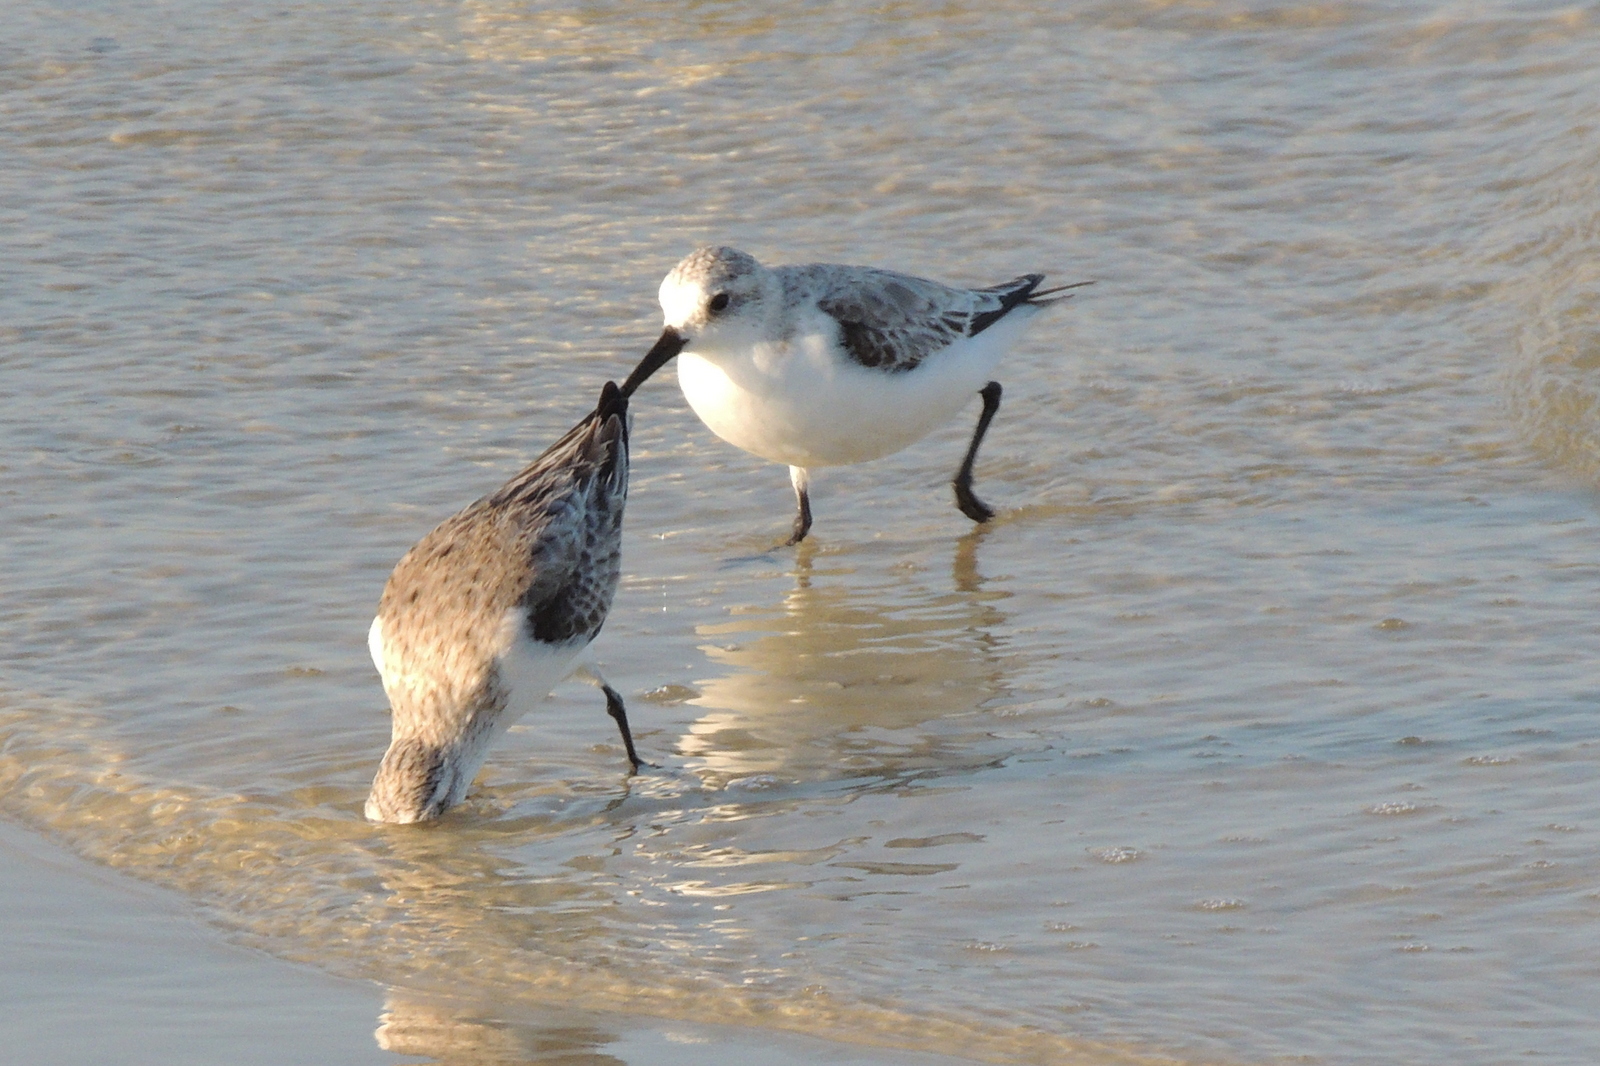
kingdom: Animalia
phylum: Chordata
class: Aves
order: Charadriiformes
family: Scolopacidae
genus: Calidris
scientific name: Calidris alba
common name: Sanderling
